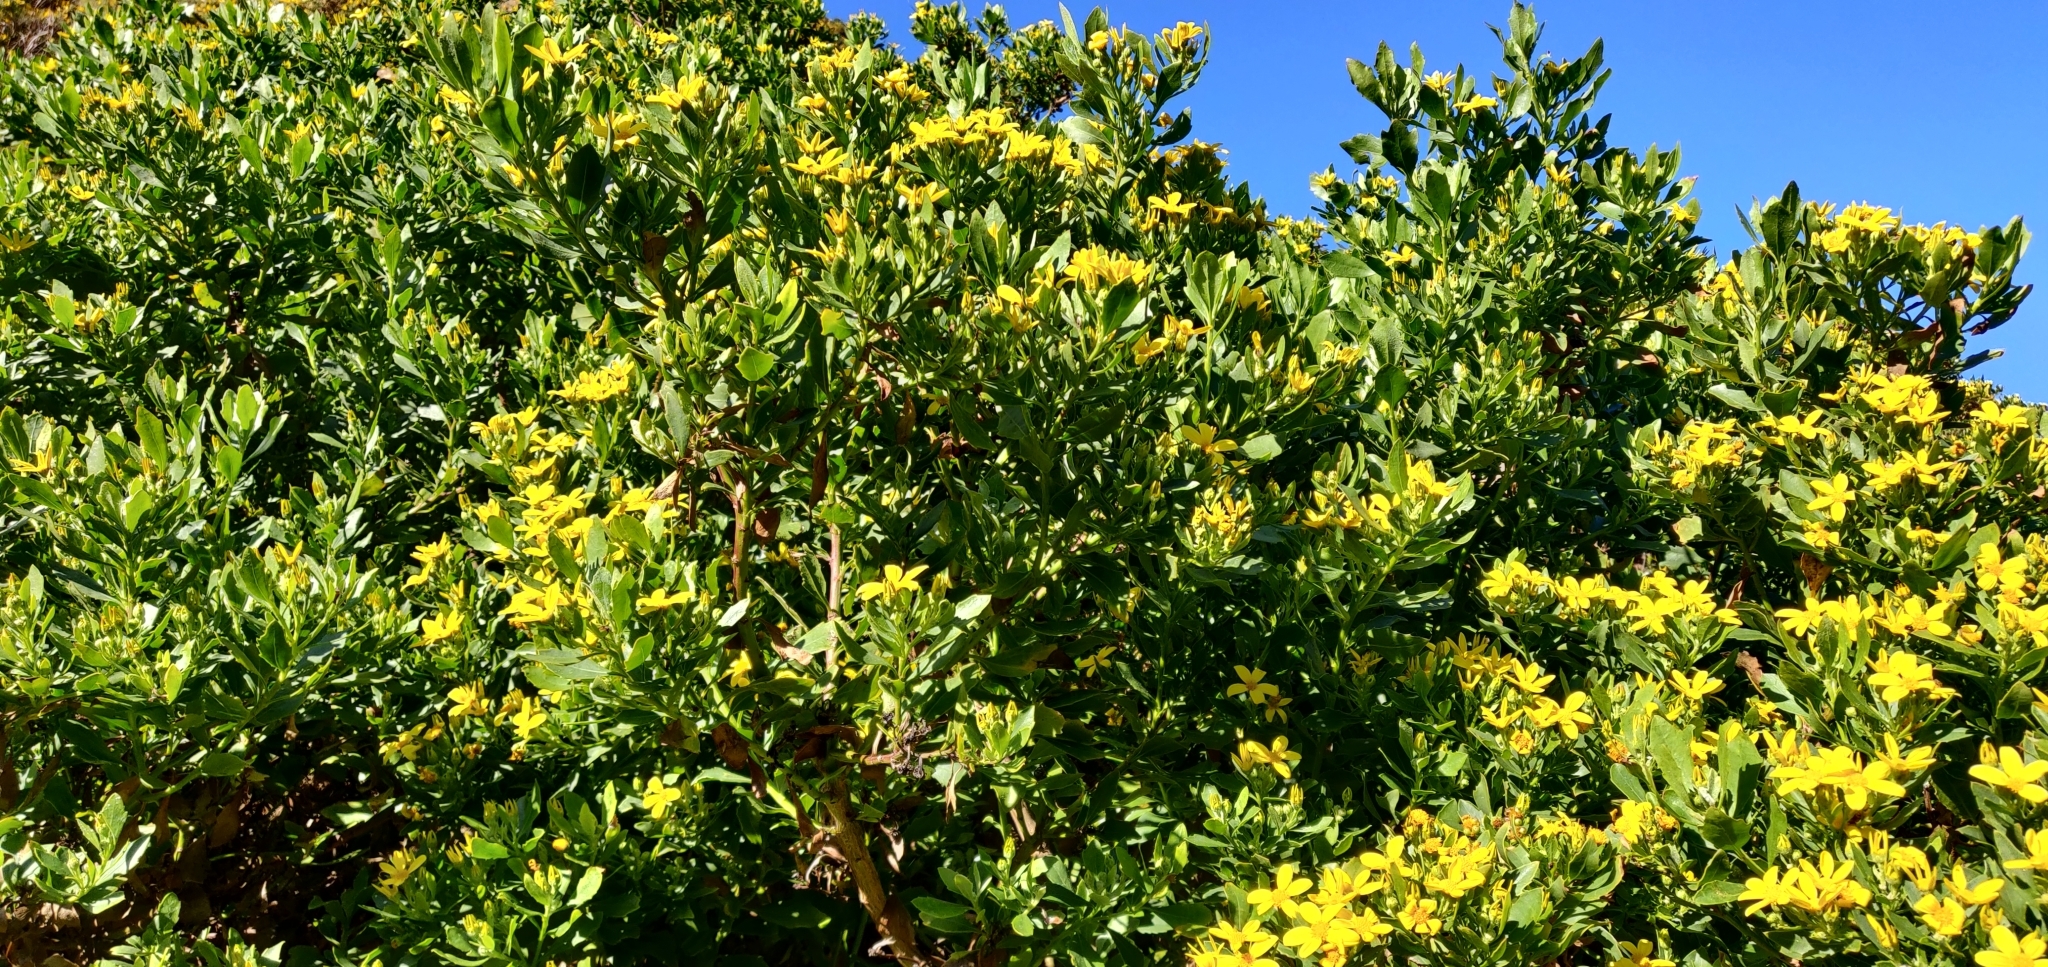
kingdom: Plantae
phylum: Tracheophyta
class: Magnoliopsida
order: Asterales
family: Asteraceae
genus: Osteospermum
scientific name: Osteospermum moniliferum
